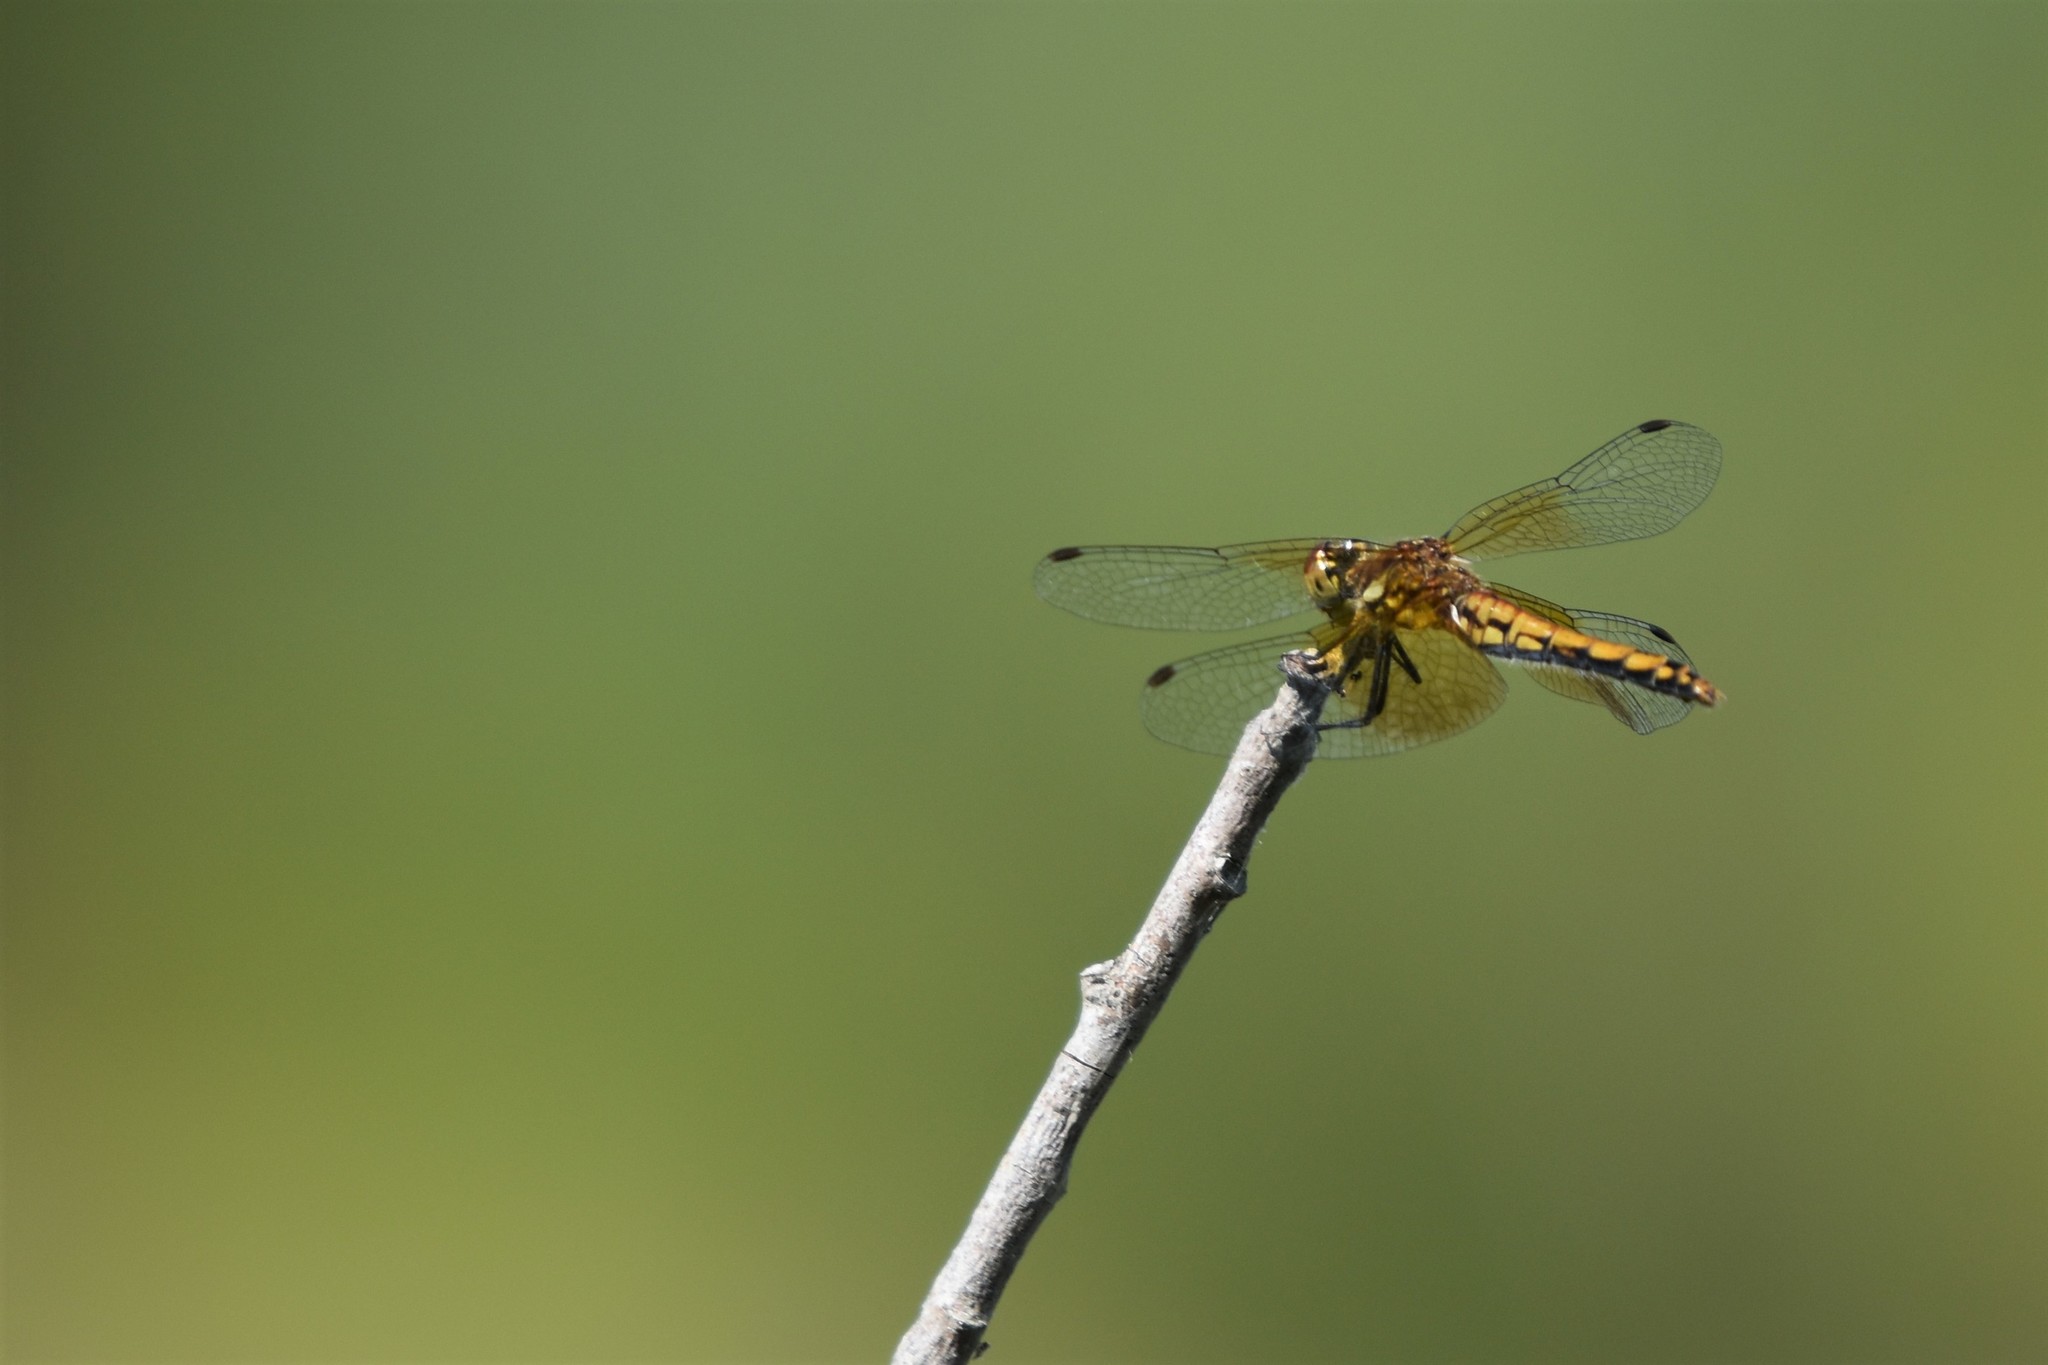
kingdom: Animalia
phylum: Arthropoda
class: Insecta
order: Odonata
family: Libellulidae
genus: Sympetrum
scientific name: Sympetrum semicinctum
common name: Band-winged meadowhawk
